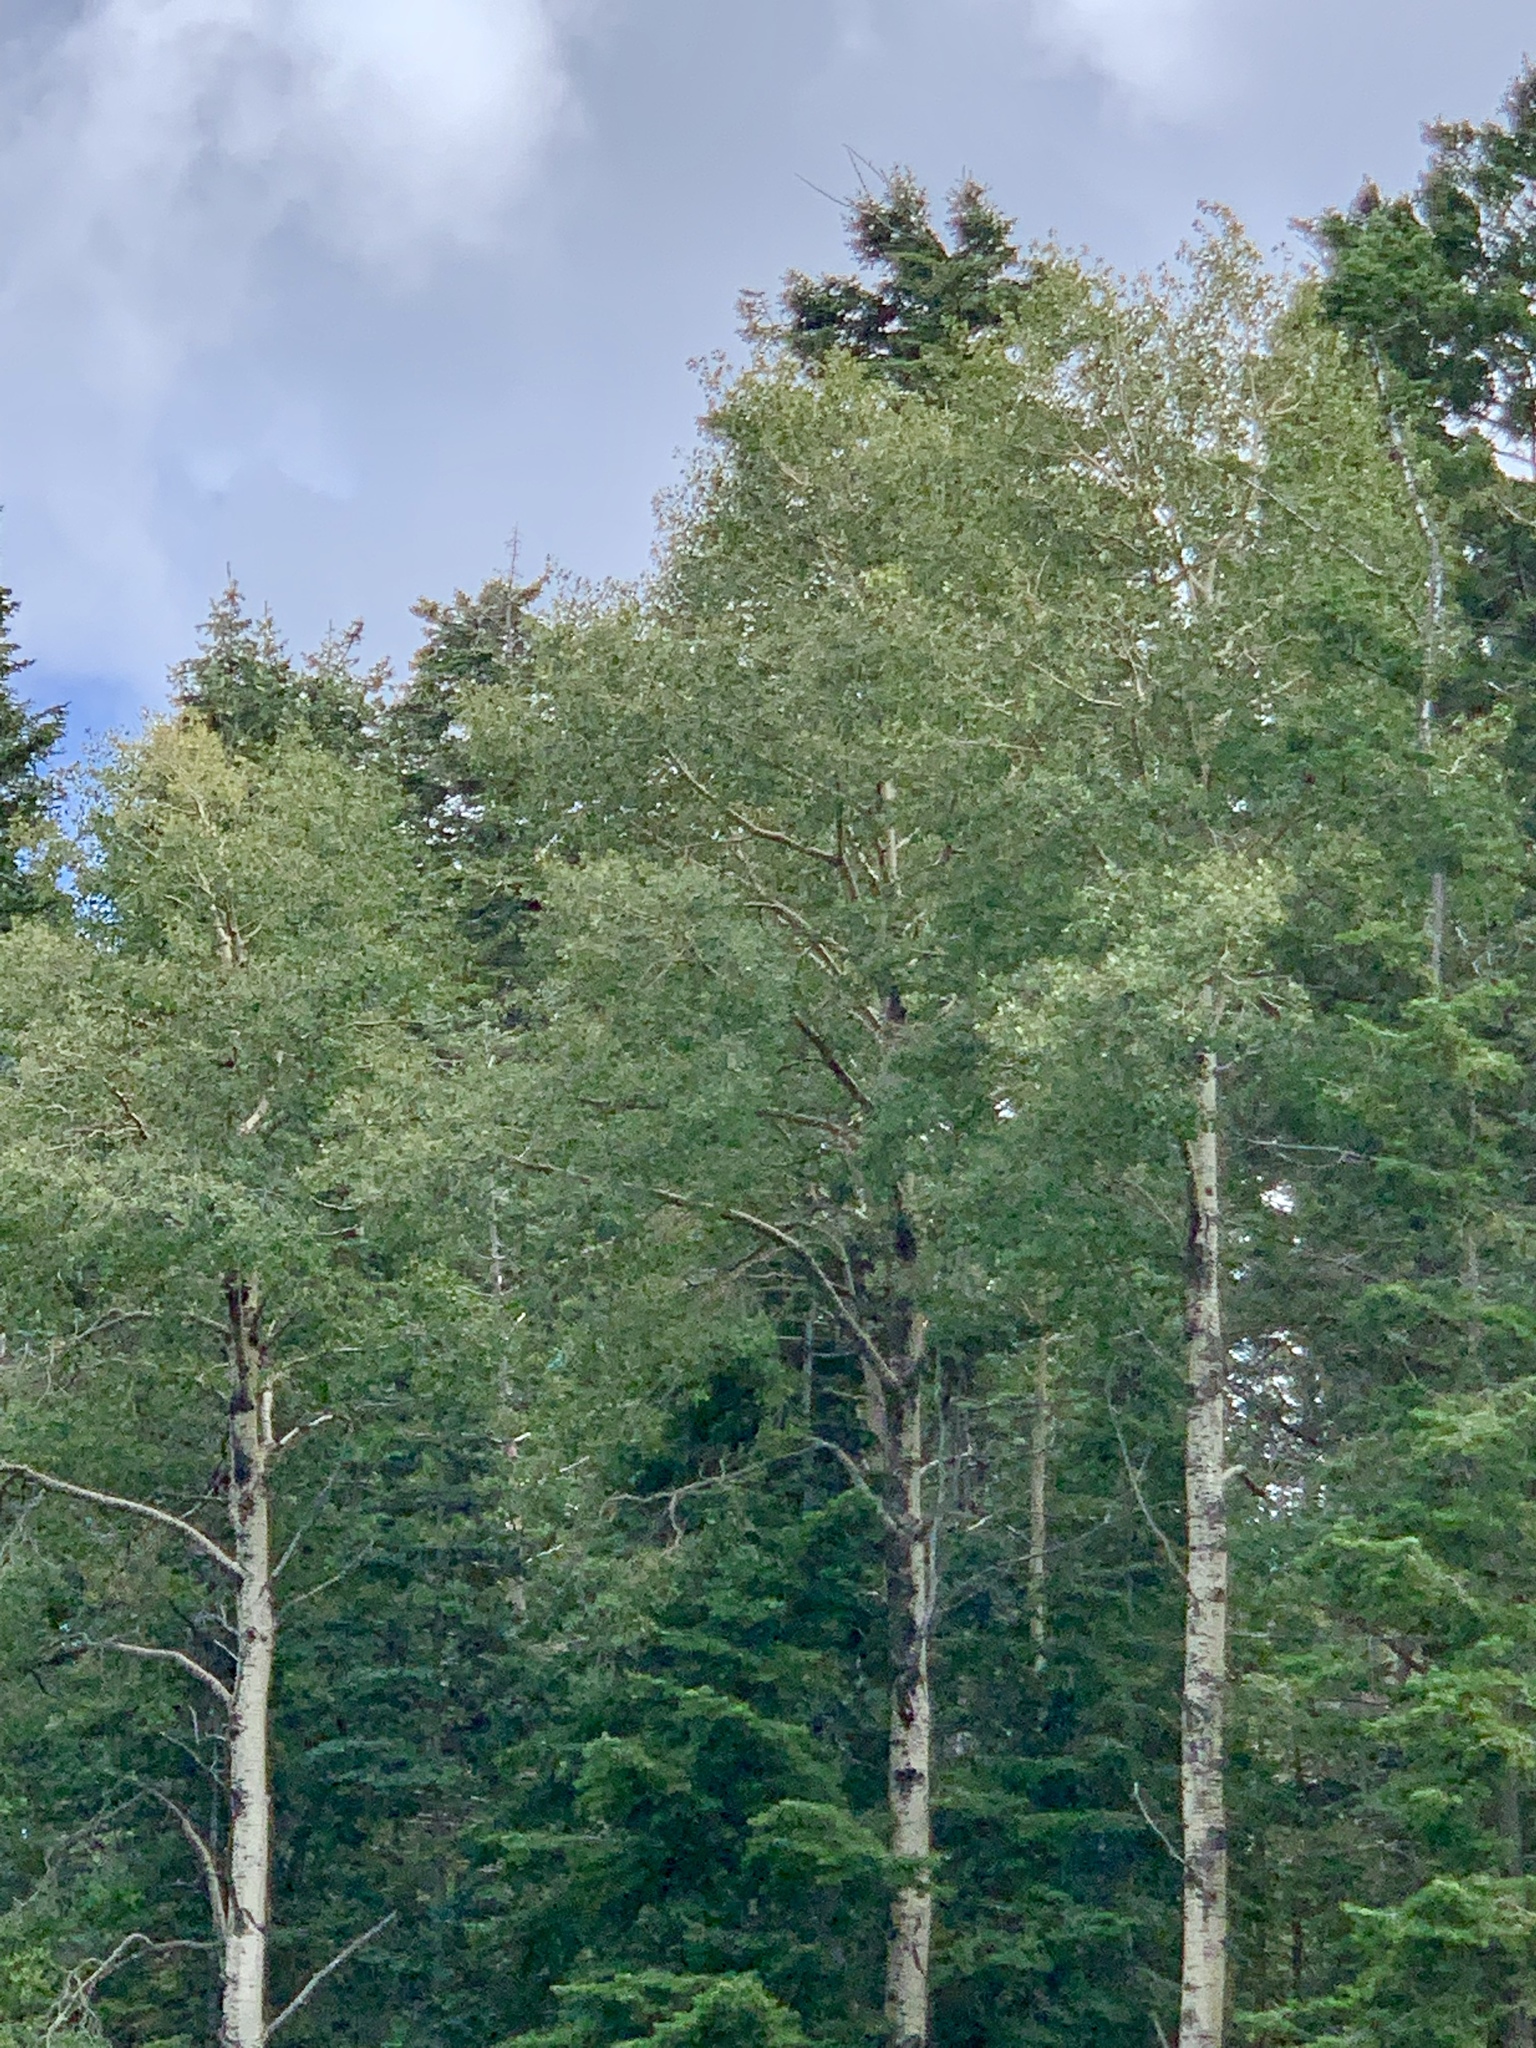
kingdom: Plantae
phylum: Tracheophyta
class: Magnoliopsida
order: Malpighiales
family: Salicaceae
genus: Populus
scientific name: Populus tremuloides
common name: Quaking aspen
